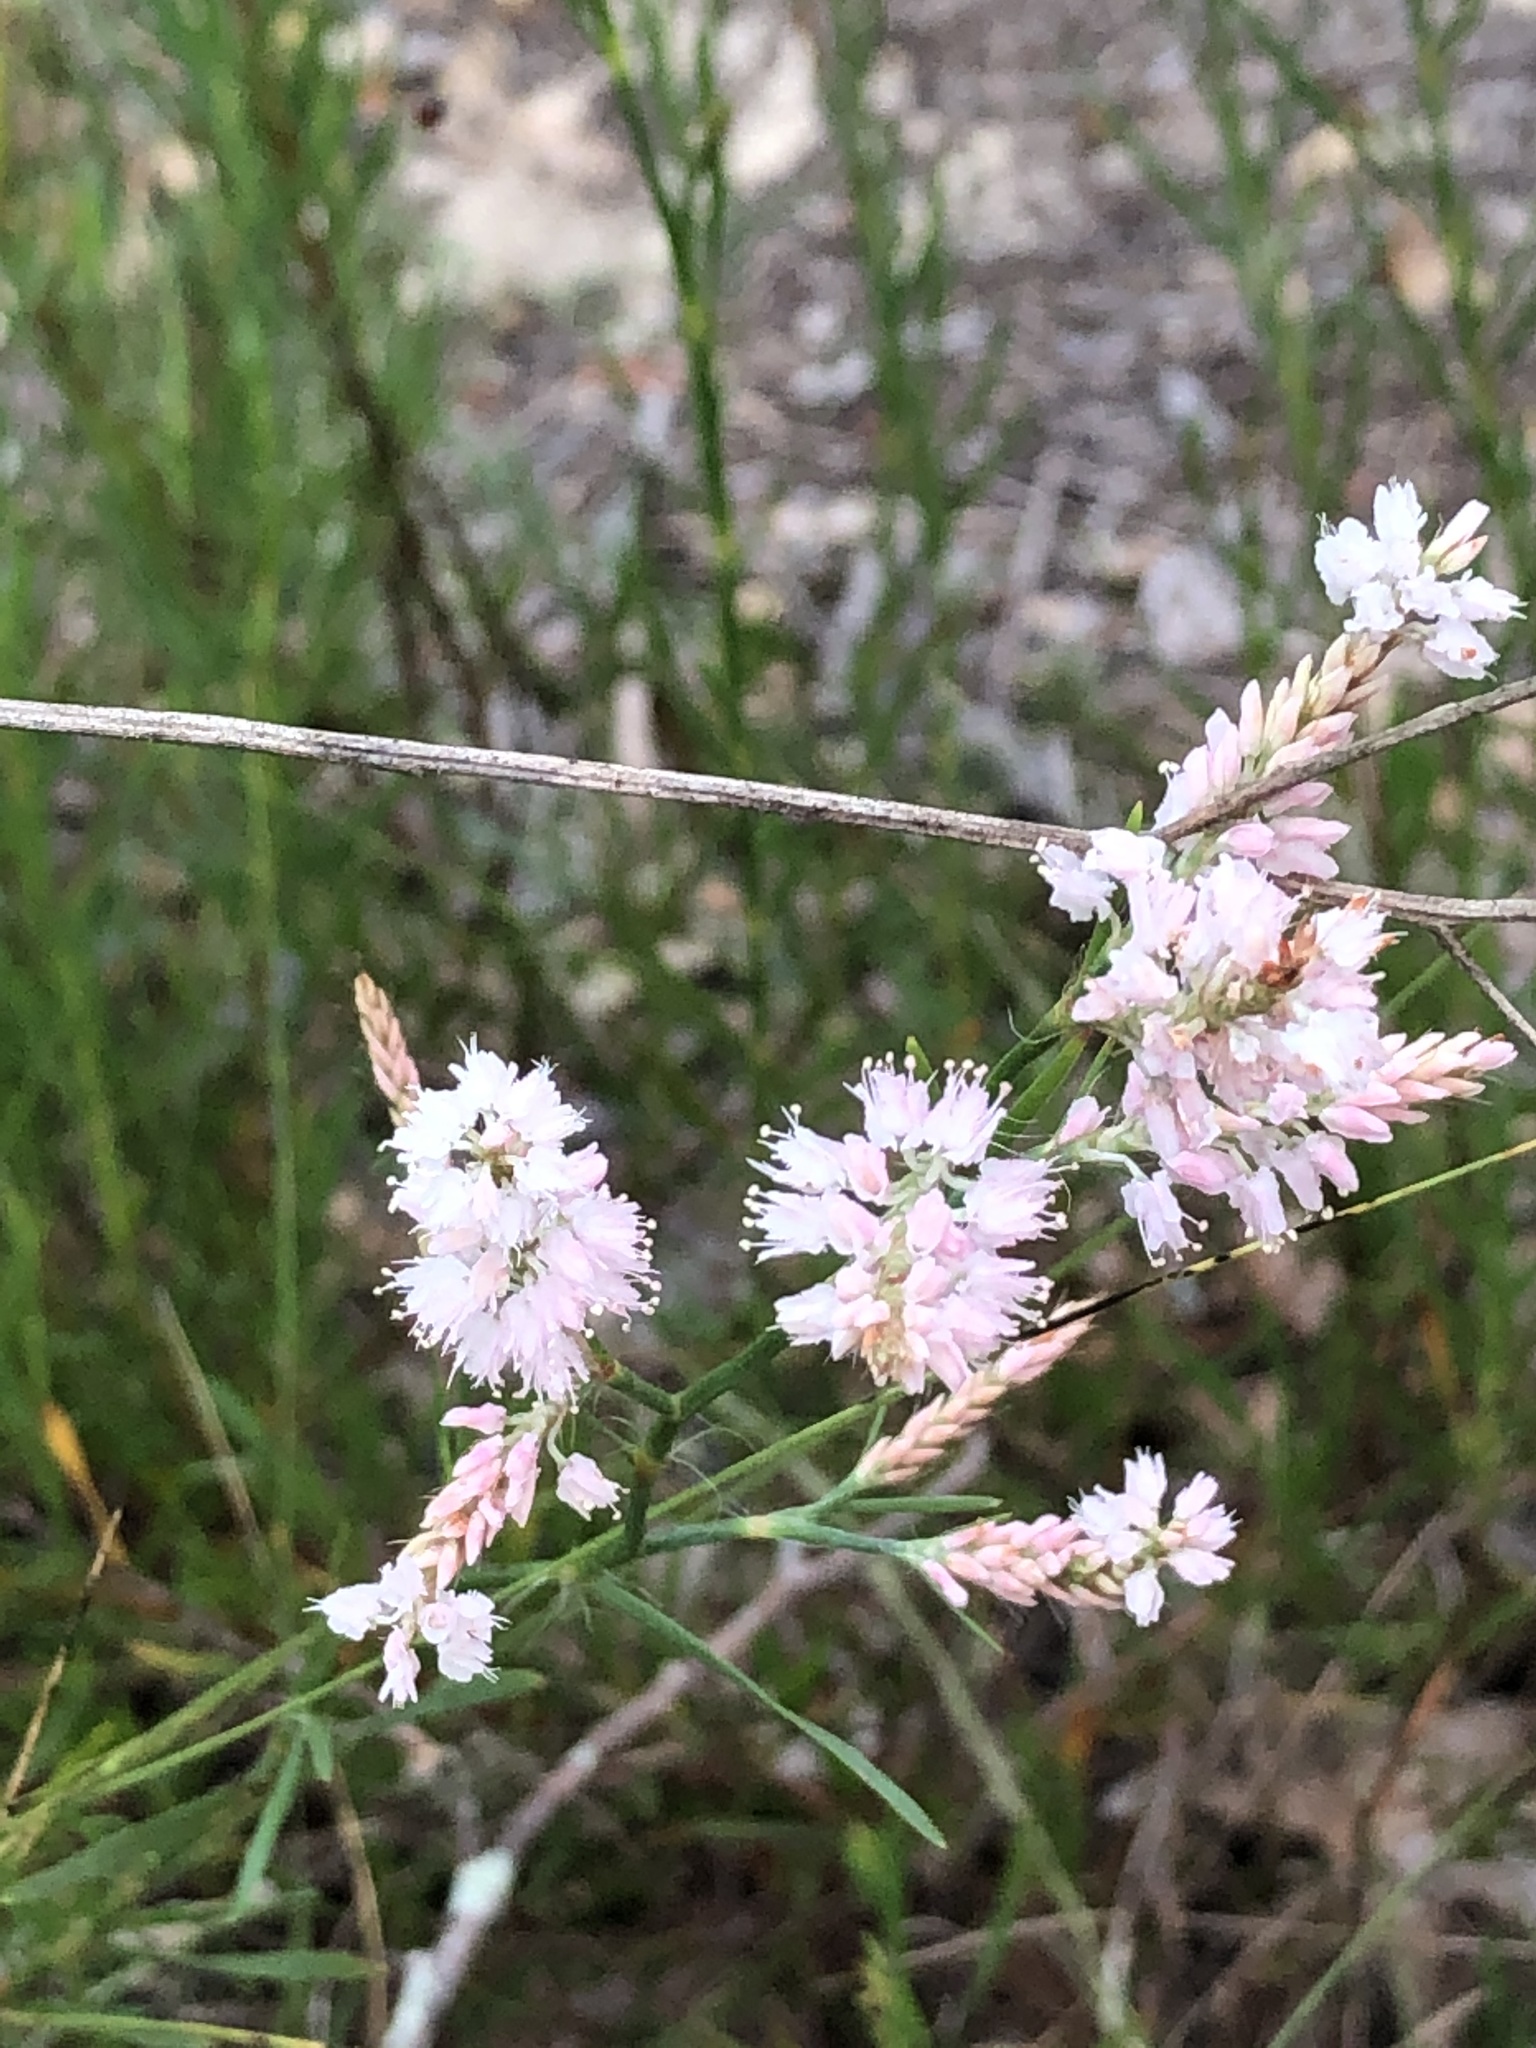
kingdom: Plantae
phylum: Tracheophyta
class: Magnoliopsida
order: Caryophyllales
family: Polygonaceae
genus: Polygonella
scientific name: Polygonella robusta
